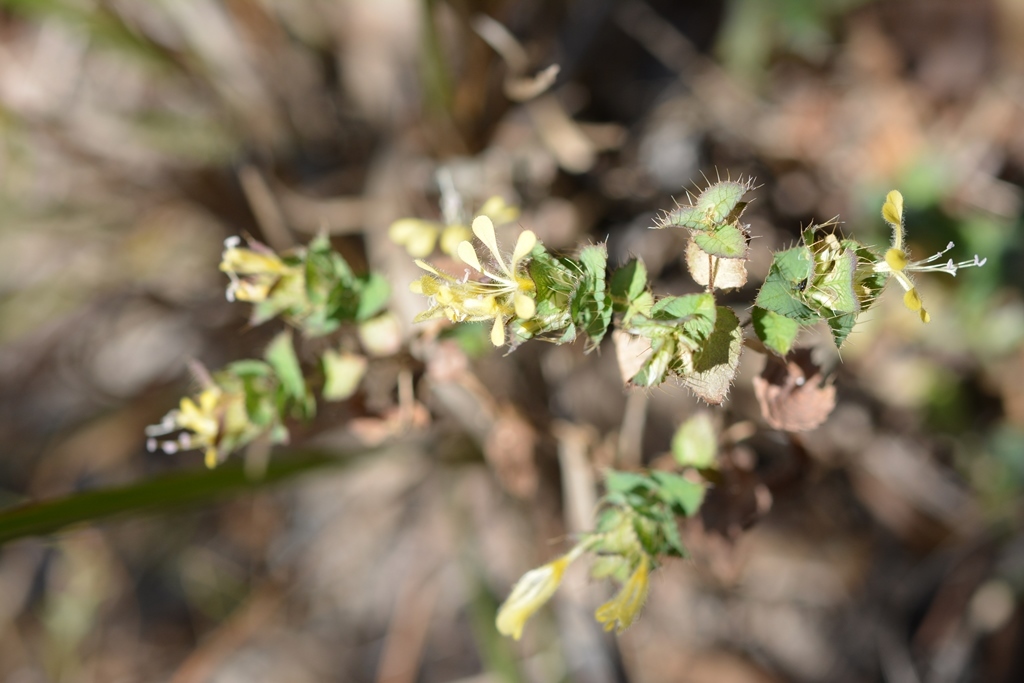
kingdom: Plantae
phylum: Tracheophyta
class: Magnoliopsida
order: Ericales
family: Polemoniaceae
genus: Loeselia
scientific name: Loeselia ciliata
